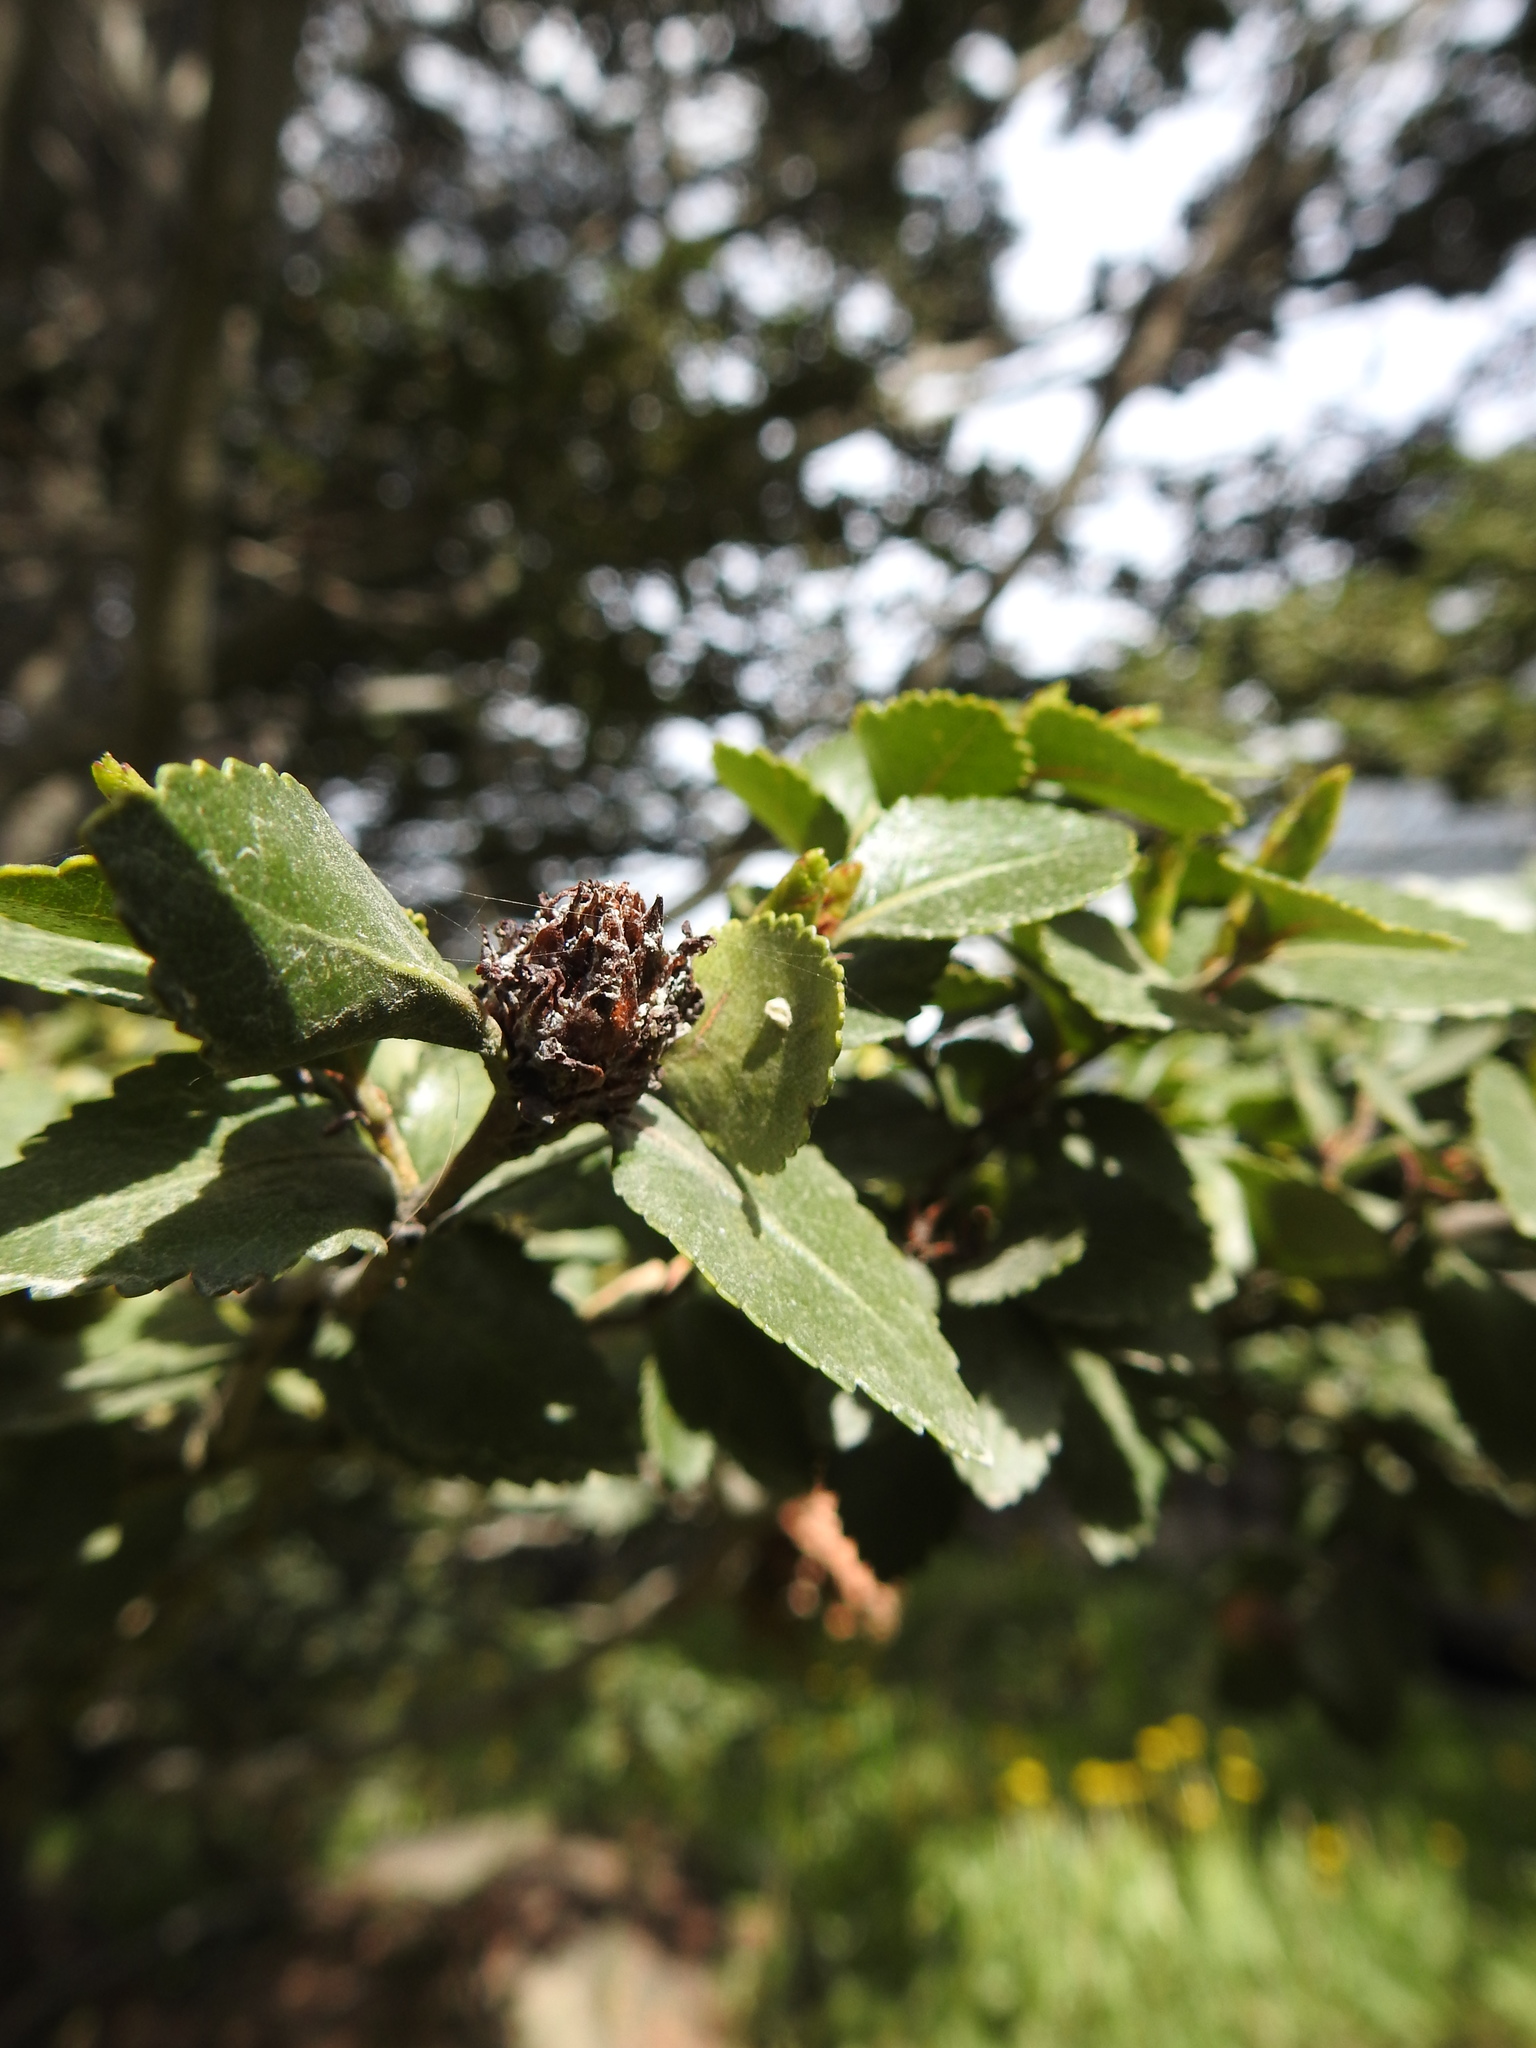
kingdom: Plantae
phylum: Tracheophyta
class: Magnoliopsida
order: Fagales
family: Nothofagaceae
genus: Nothofagus
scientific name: Nothofagus betuloides
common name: Magellan's beech
